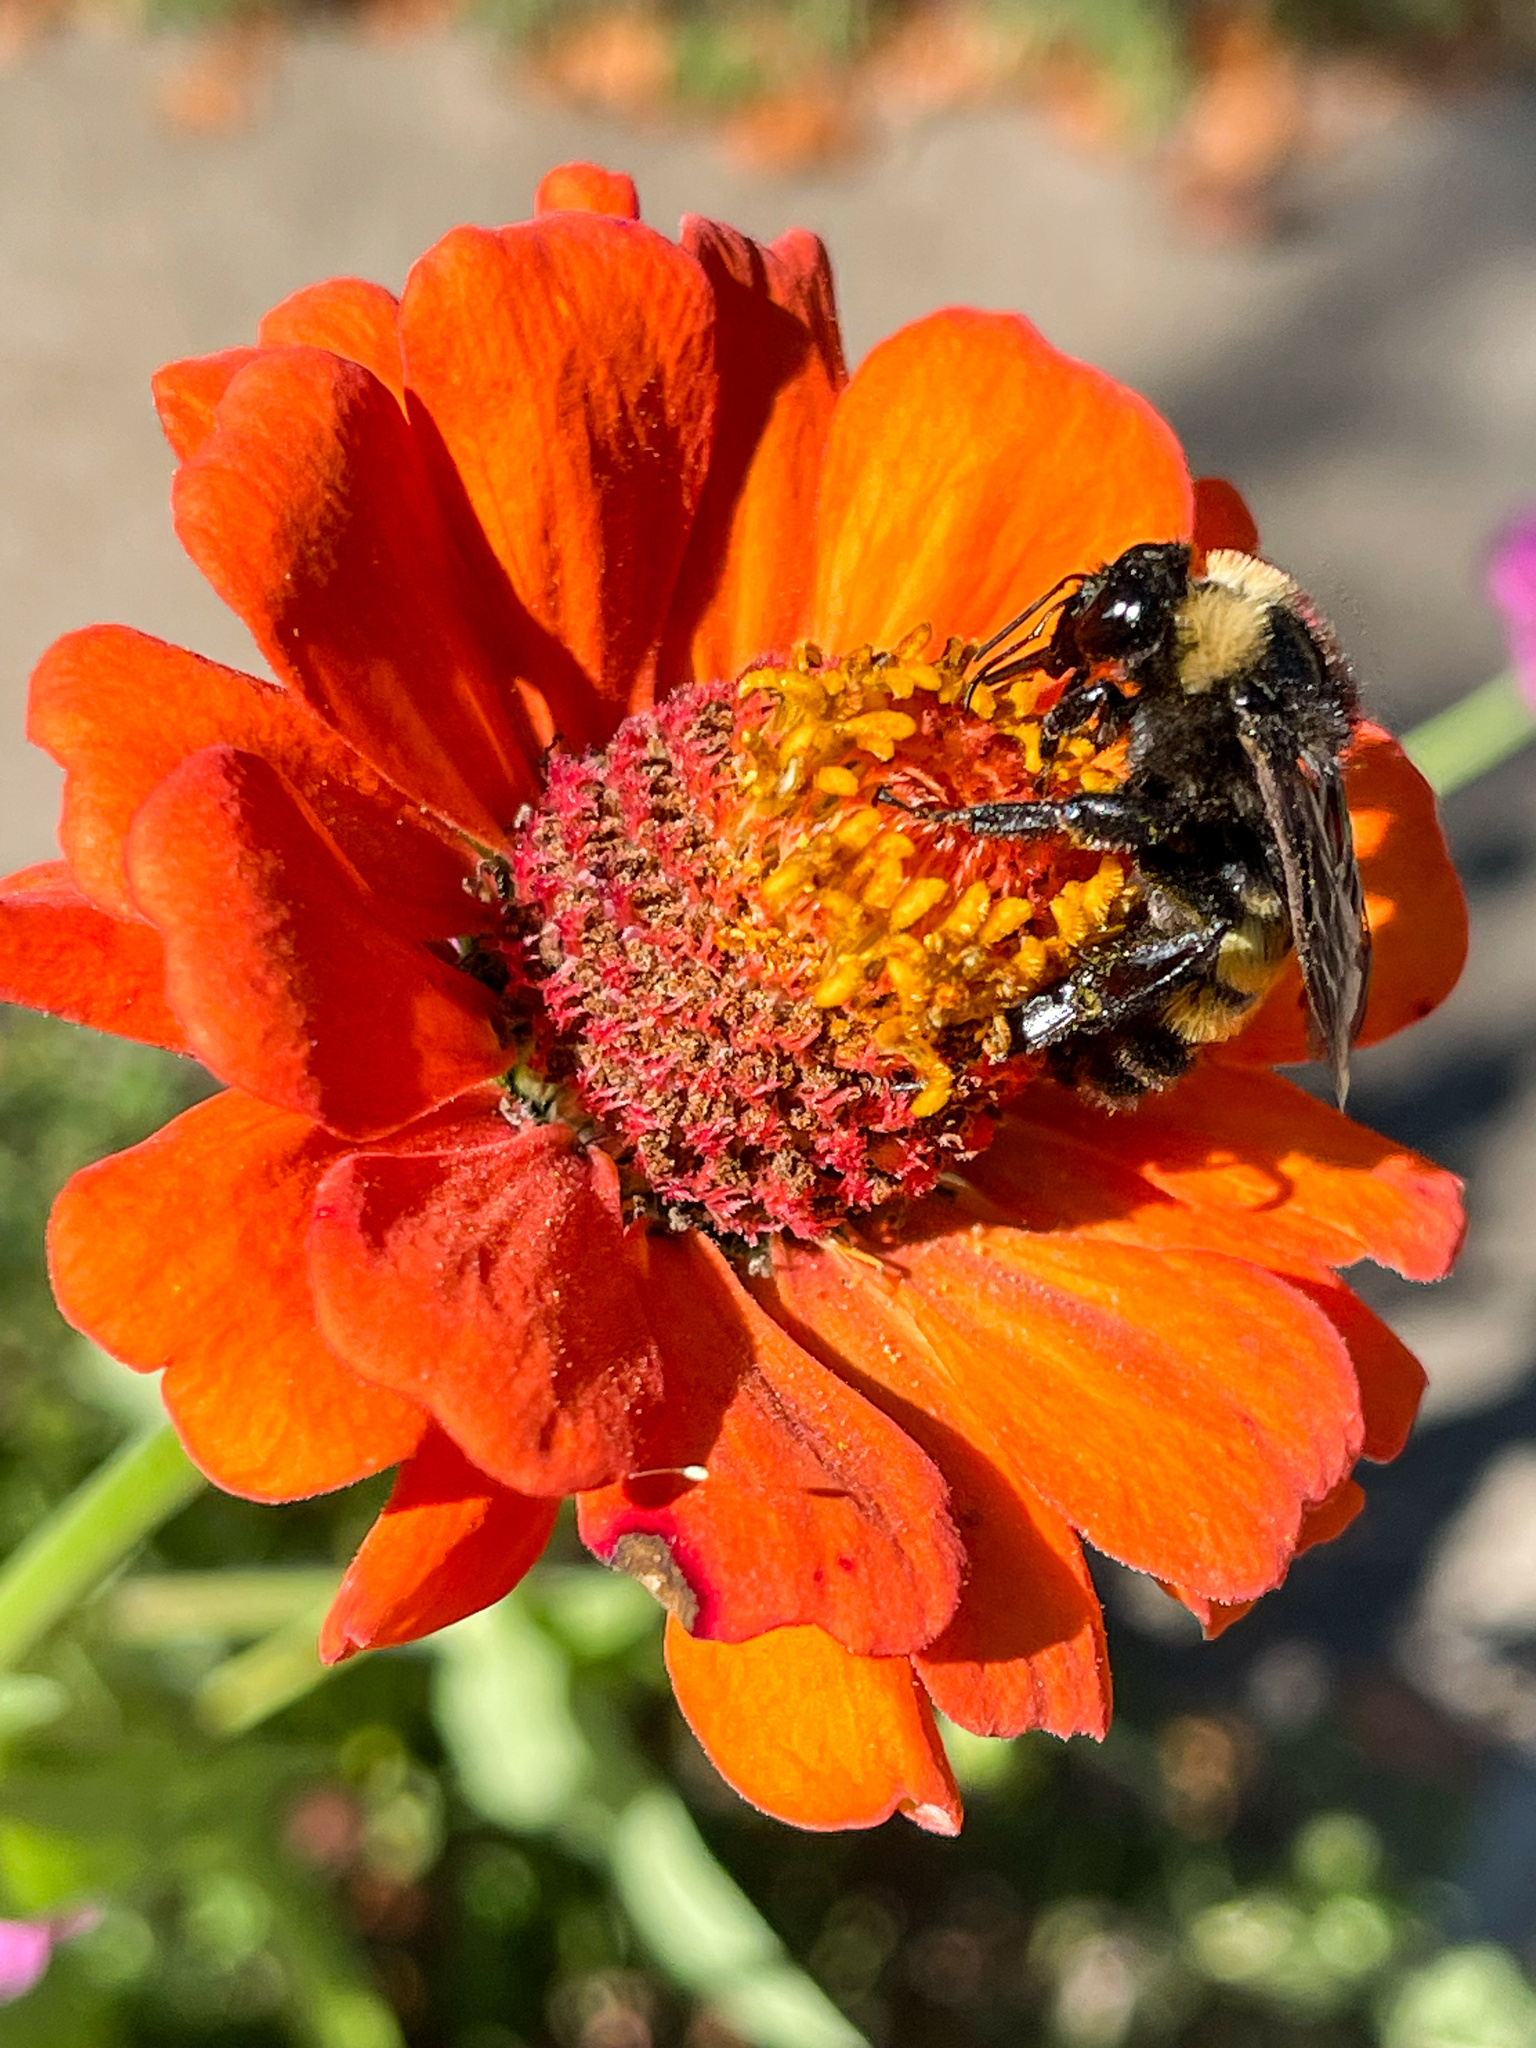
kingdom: Animalia
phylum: Arthropoda
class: Insecta
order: Hymenoptera
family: Apidae
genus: Bombus
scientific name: Bombus pensylvanicus
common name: Bumble bee
